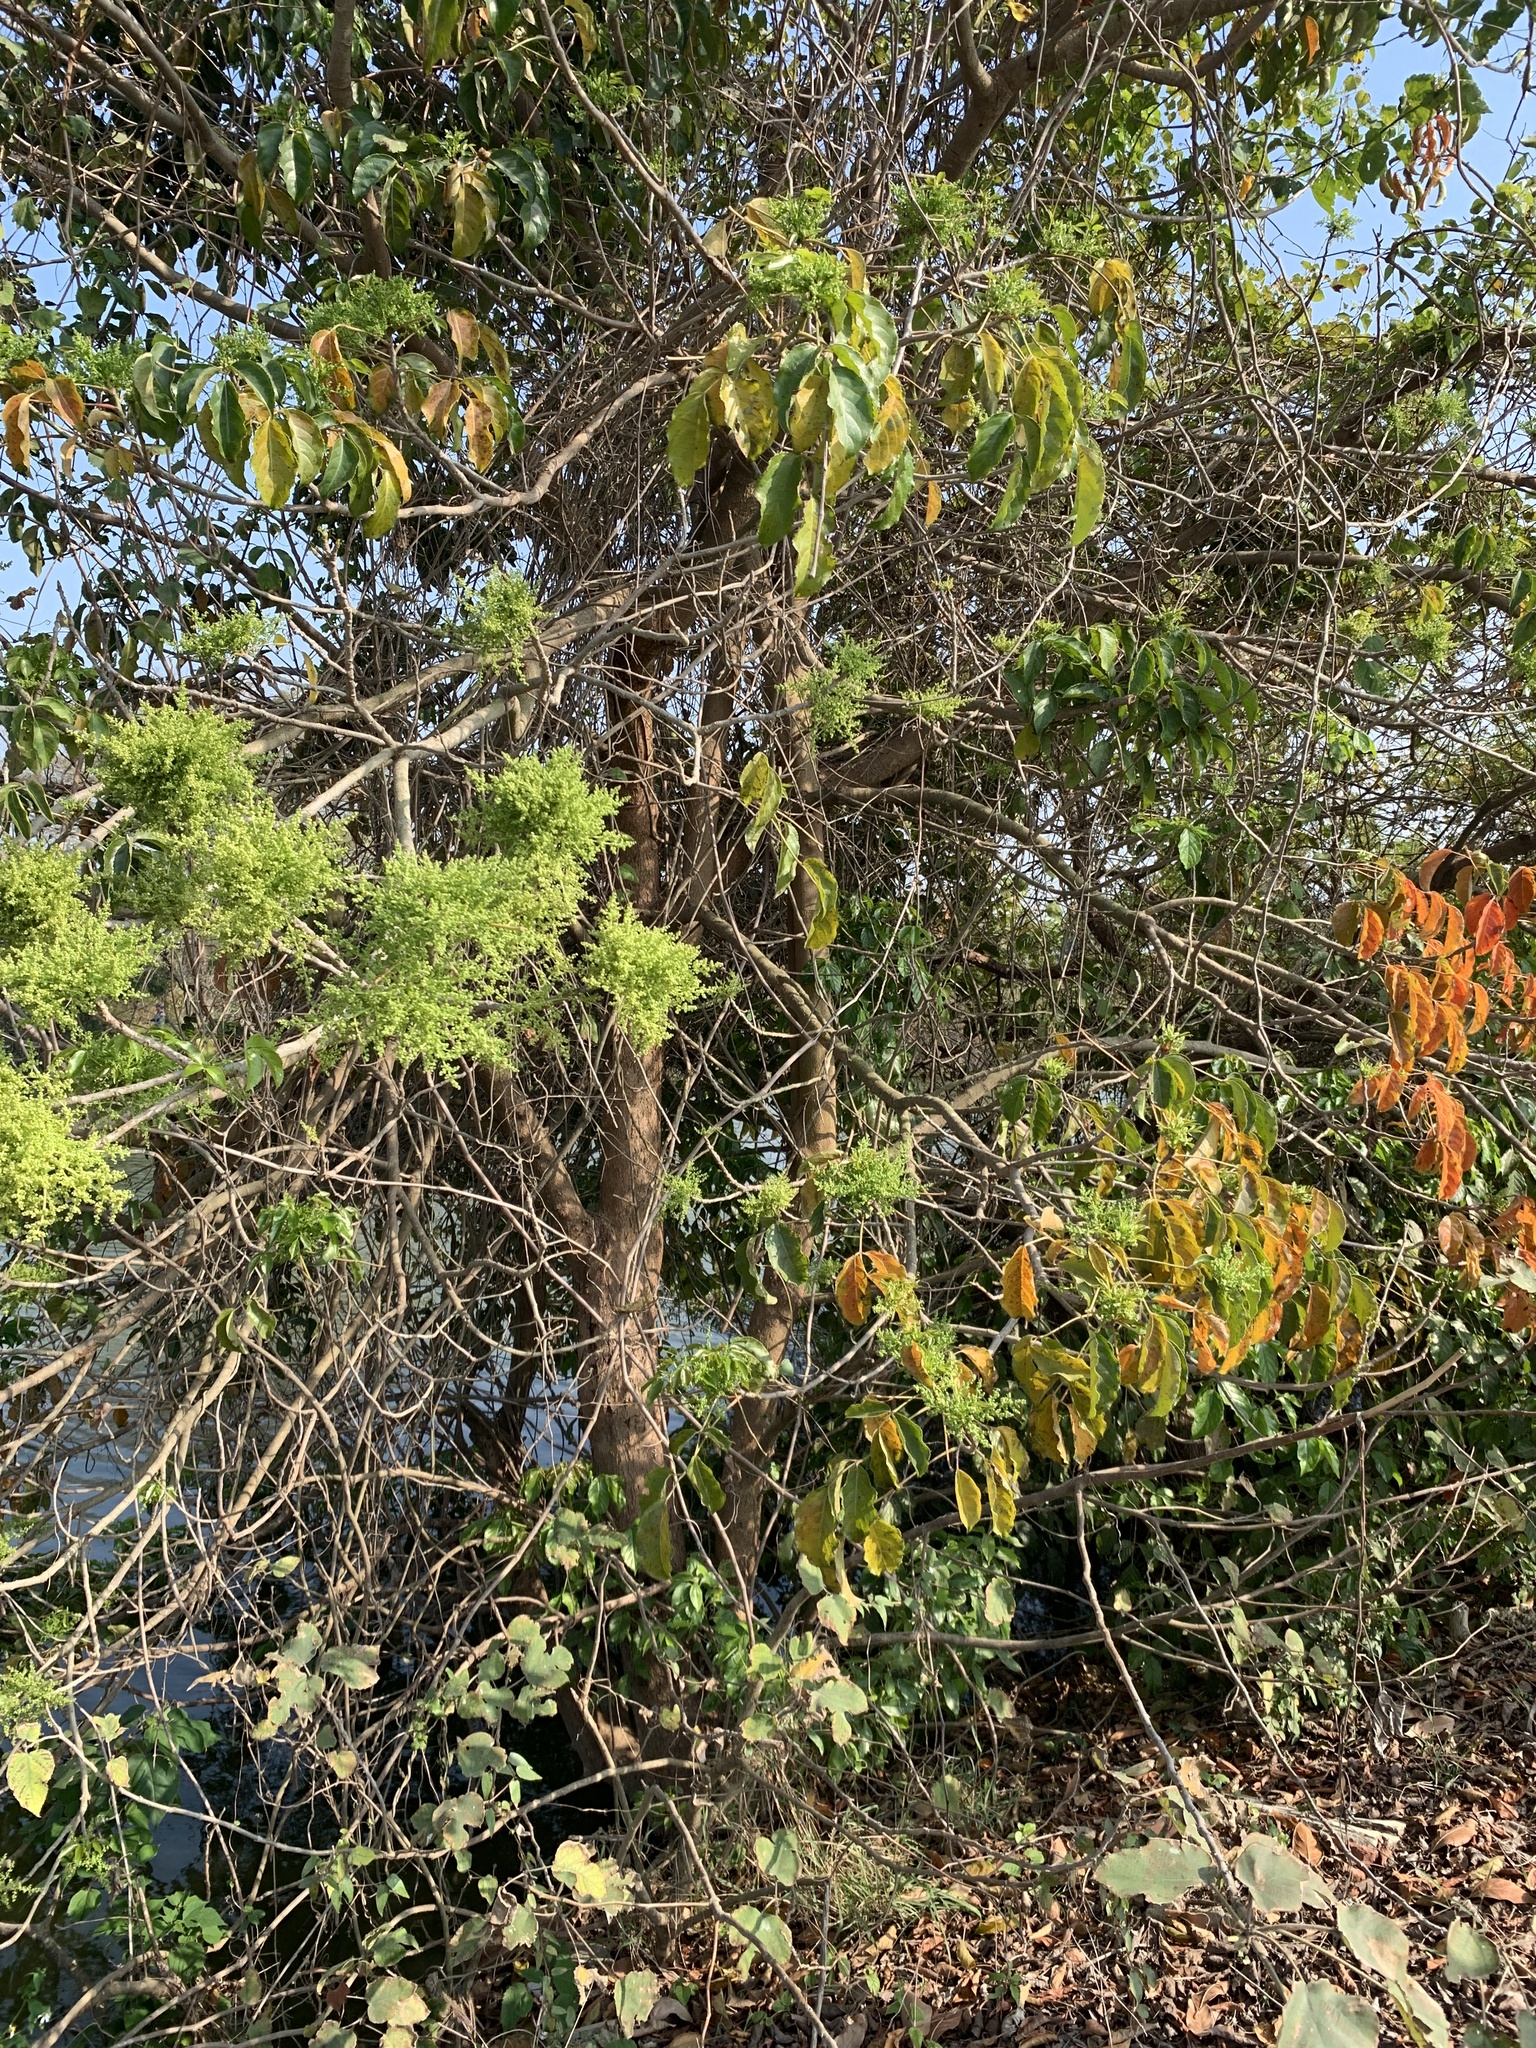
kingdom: Plantae
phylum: Tracheophyta
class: Magnoliopsida
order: Vitales
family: Vitaceae
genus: Ampelopsis
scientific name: Ampelopsis glandulosa
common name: Amur peppervine
